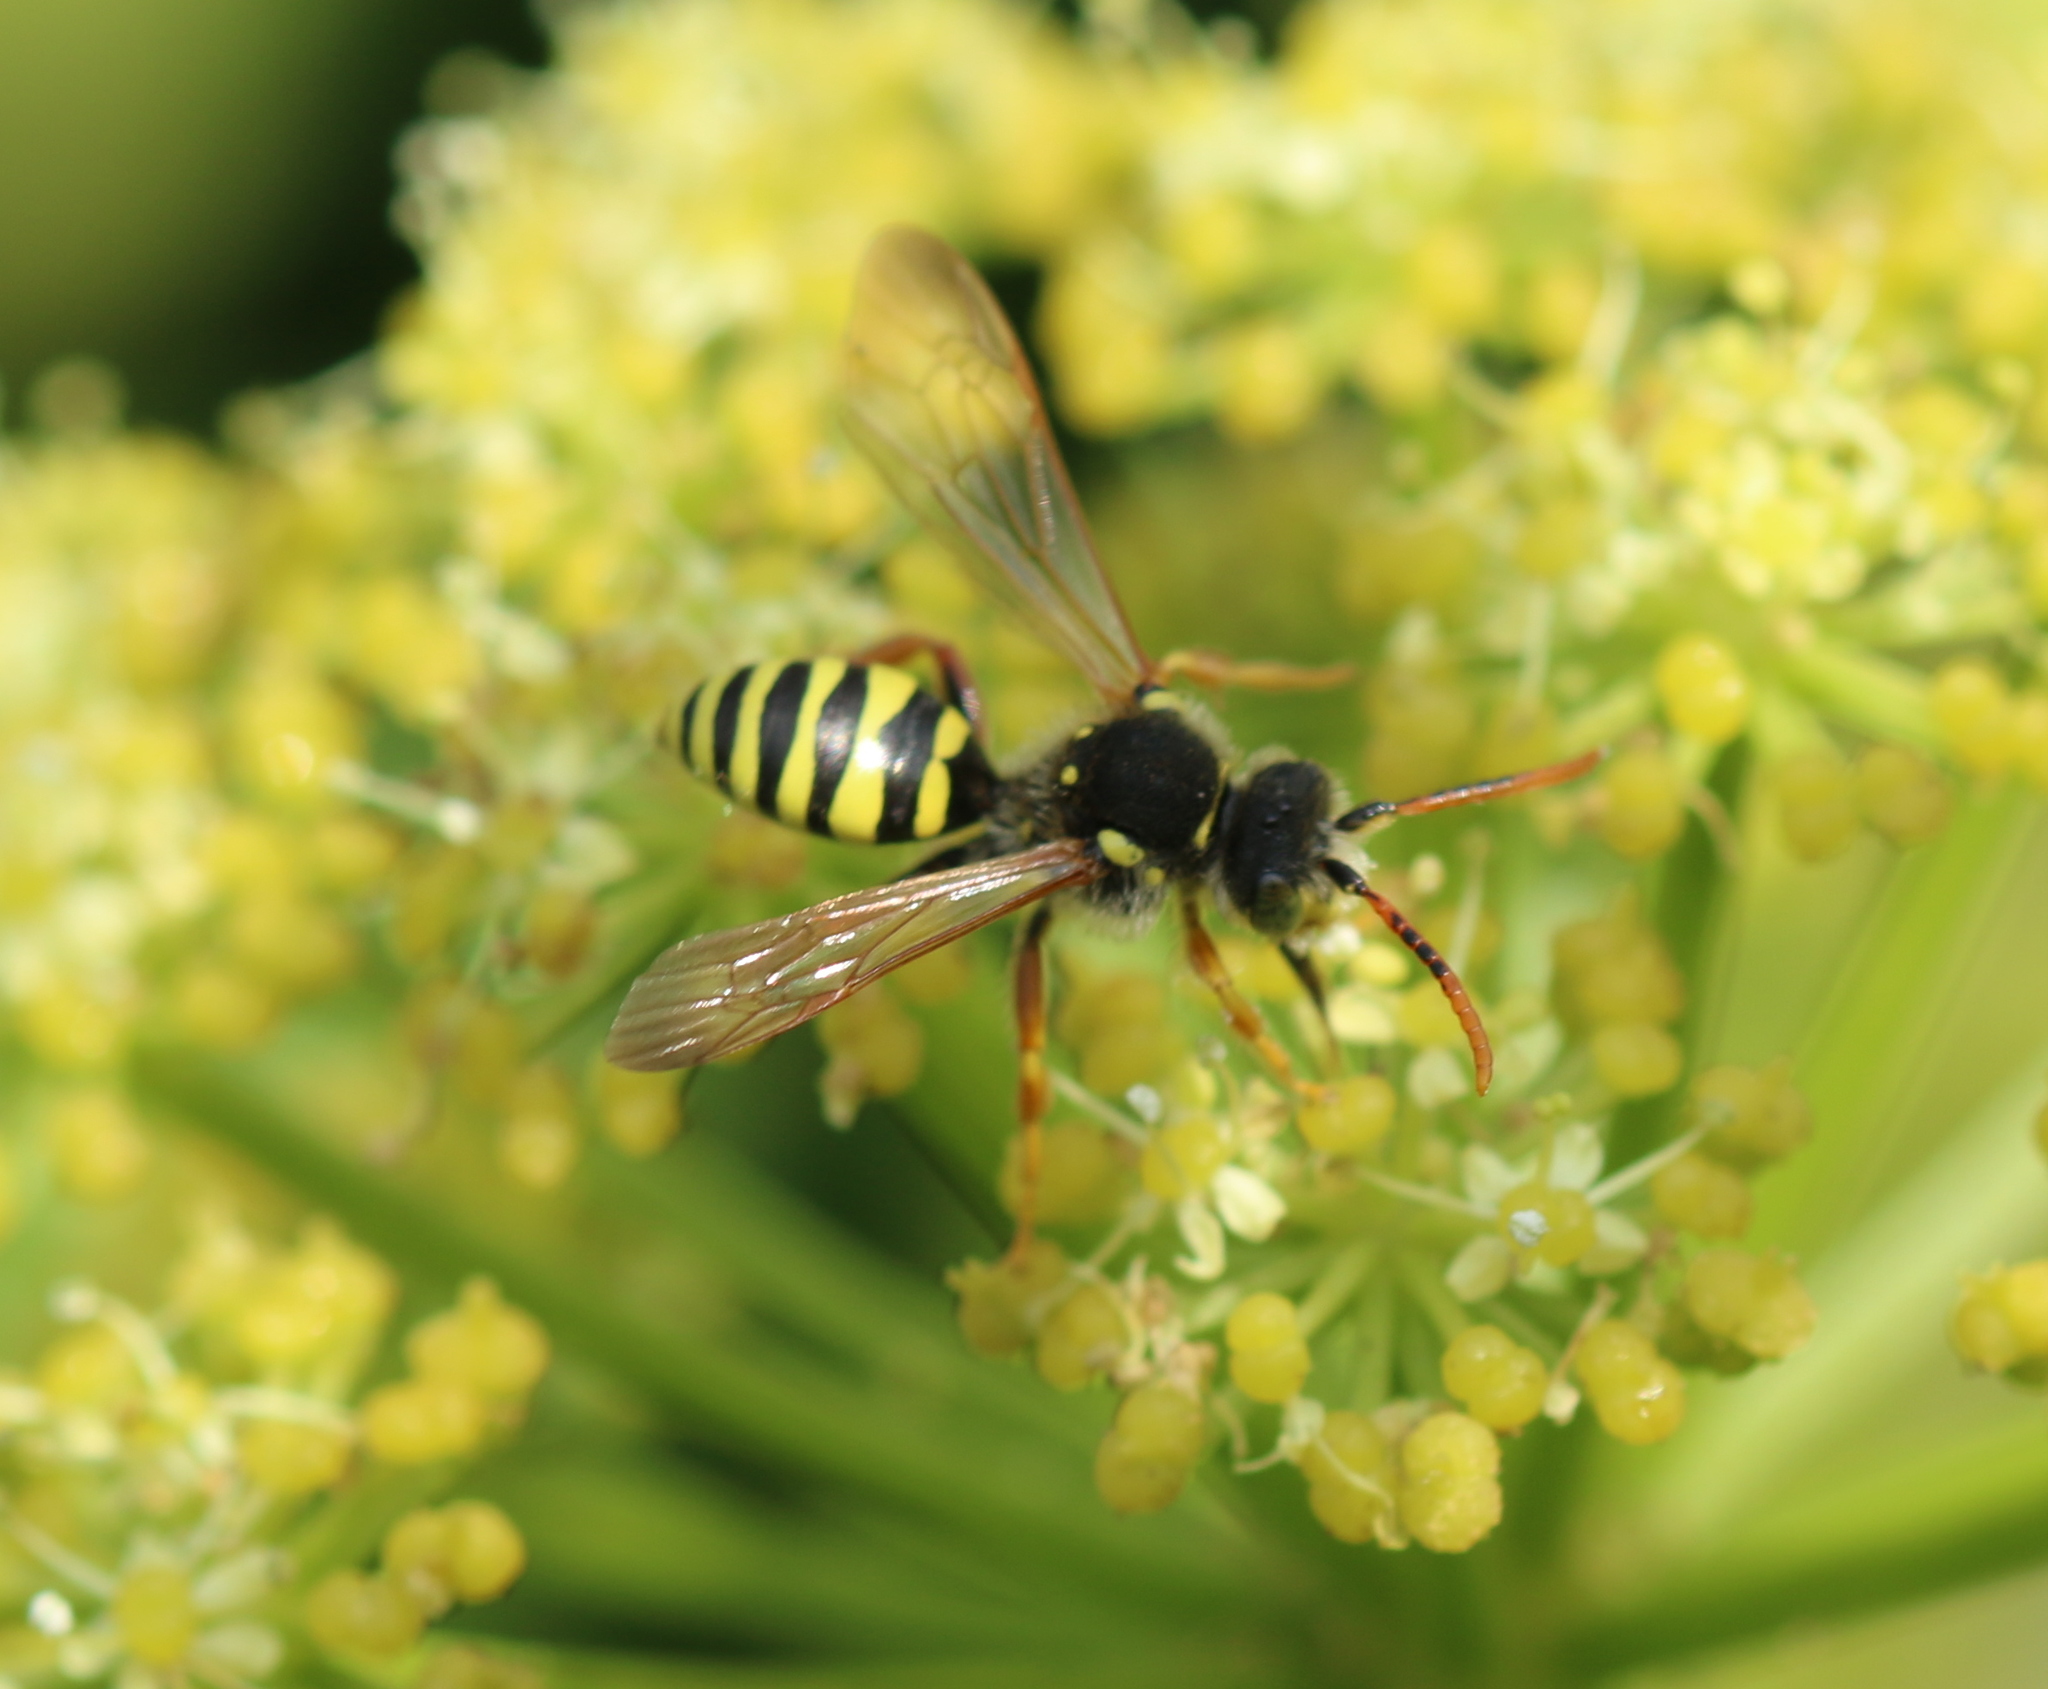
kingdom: Animalia
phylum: Arthropoda
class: Insecta
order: Hymenoptera
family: Apidae
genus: Nomada
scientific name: Nomada goodeniana
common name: Gooden's nomad bee
